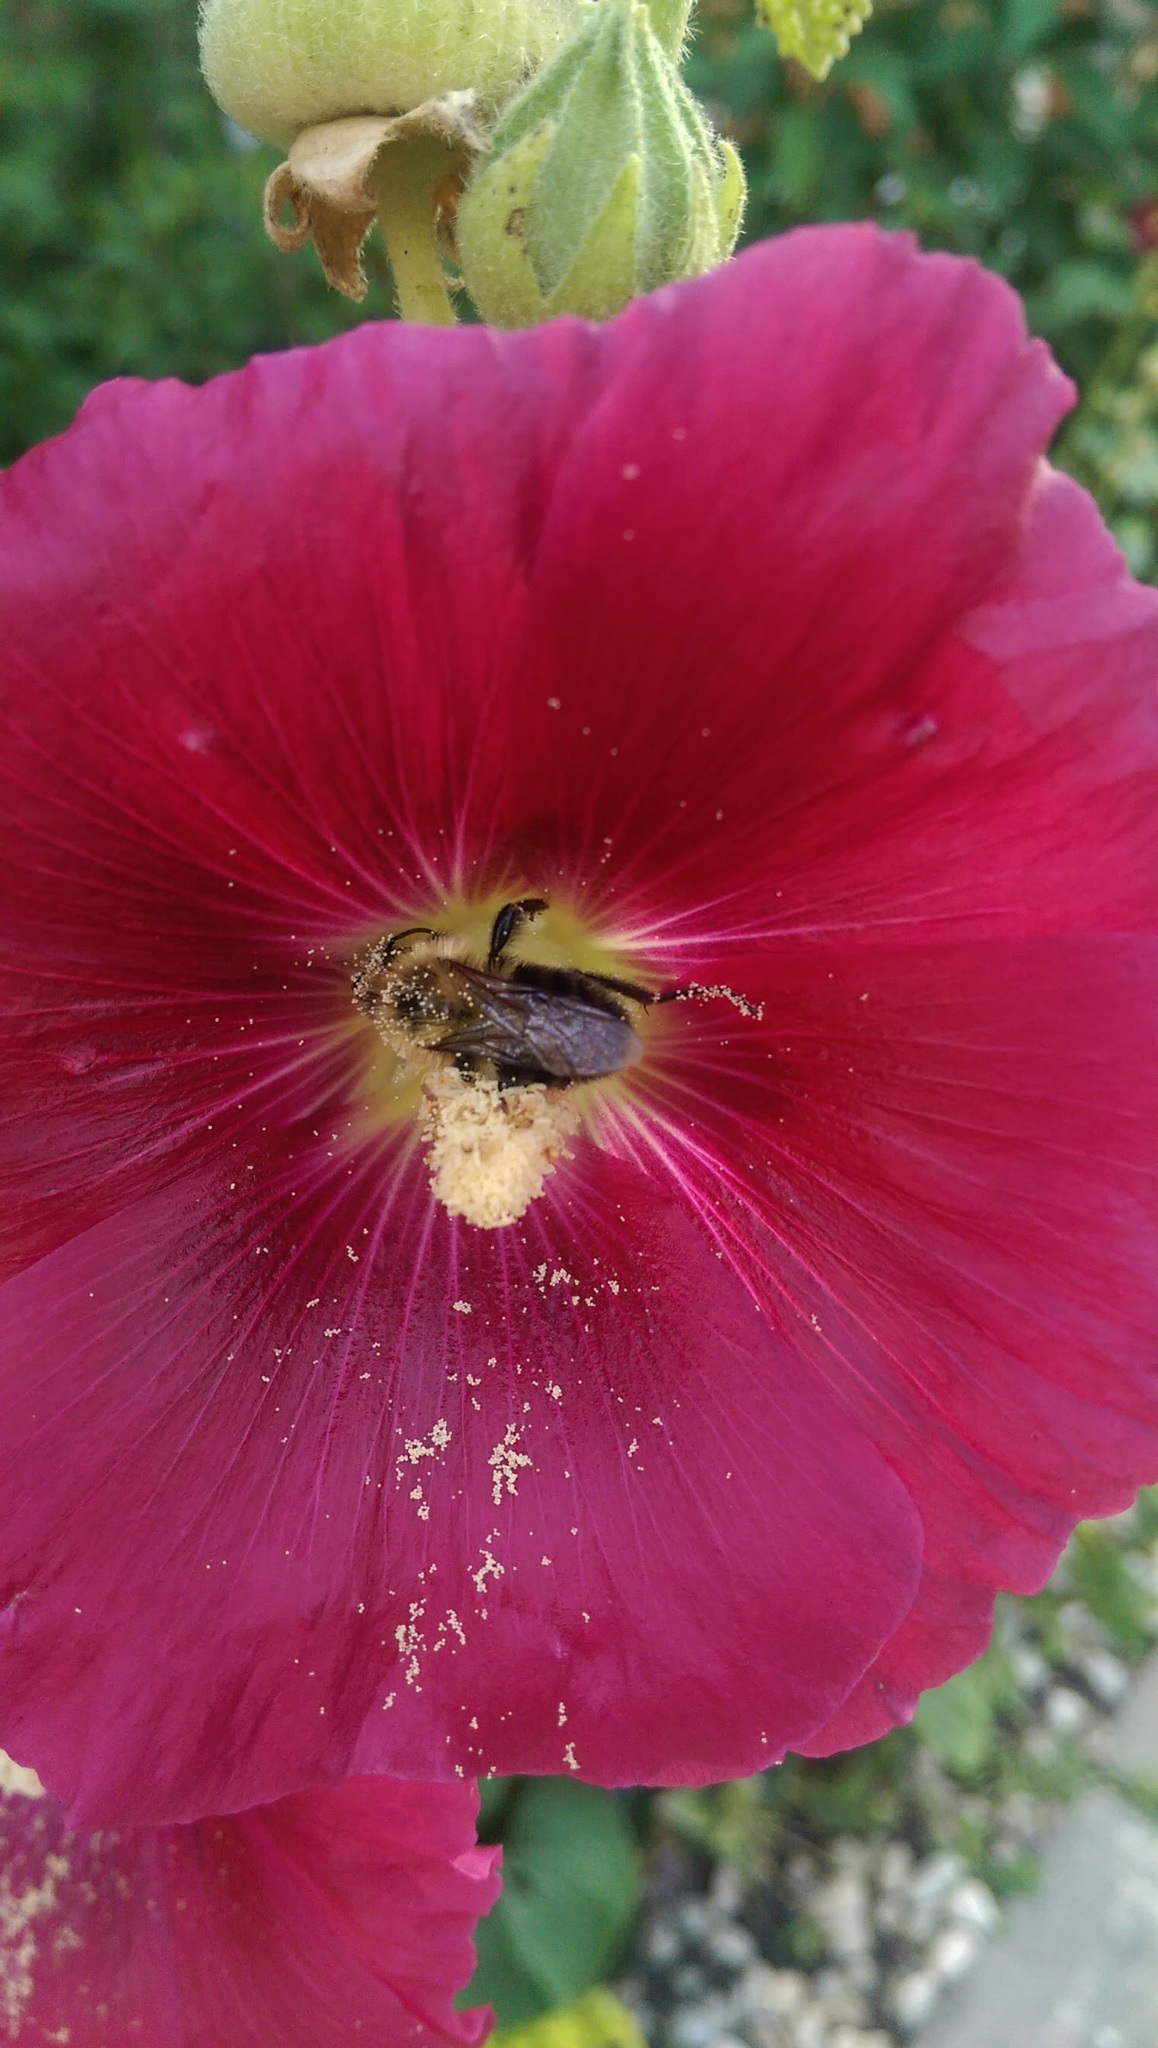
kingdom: Animalia
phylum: Arthropoda
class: Insecta
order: Hymenoptera
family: Apidae
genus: Bombus
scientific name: Bombus impatiens
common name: Common eastern bumble bee
